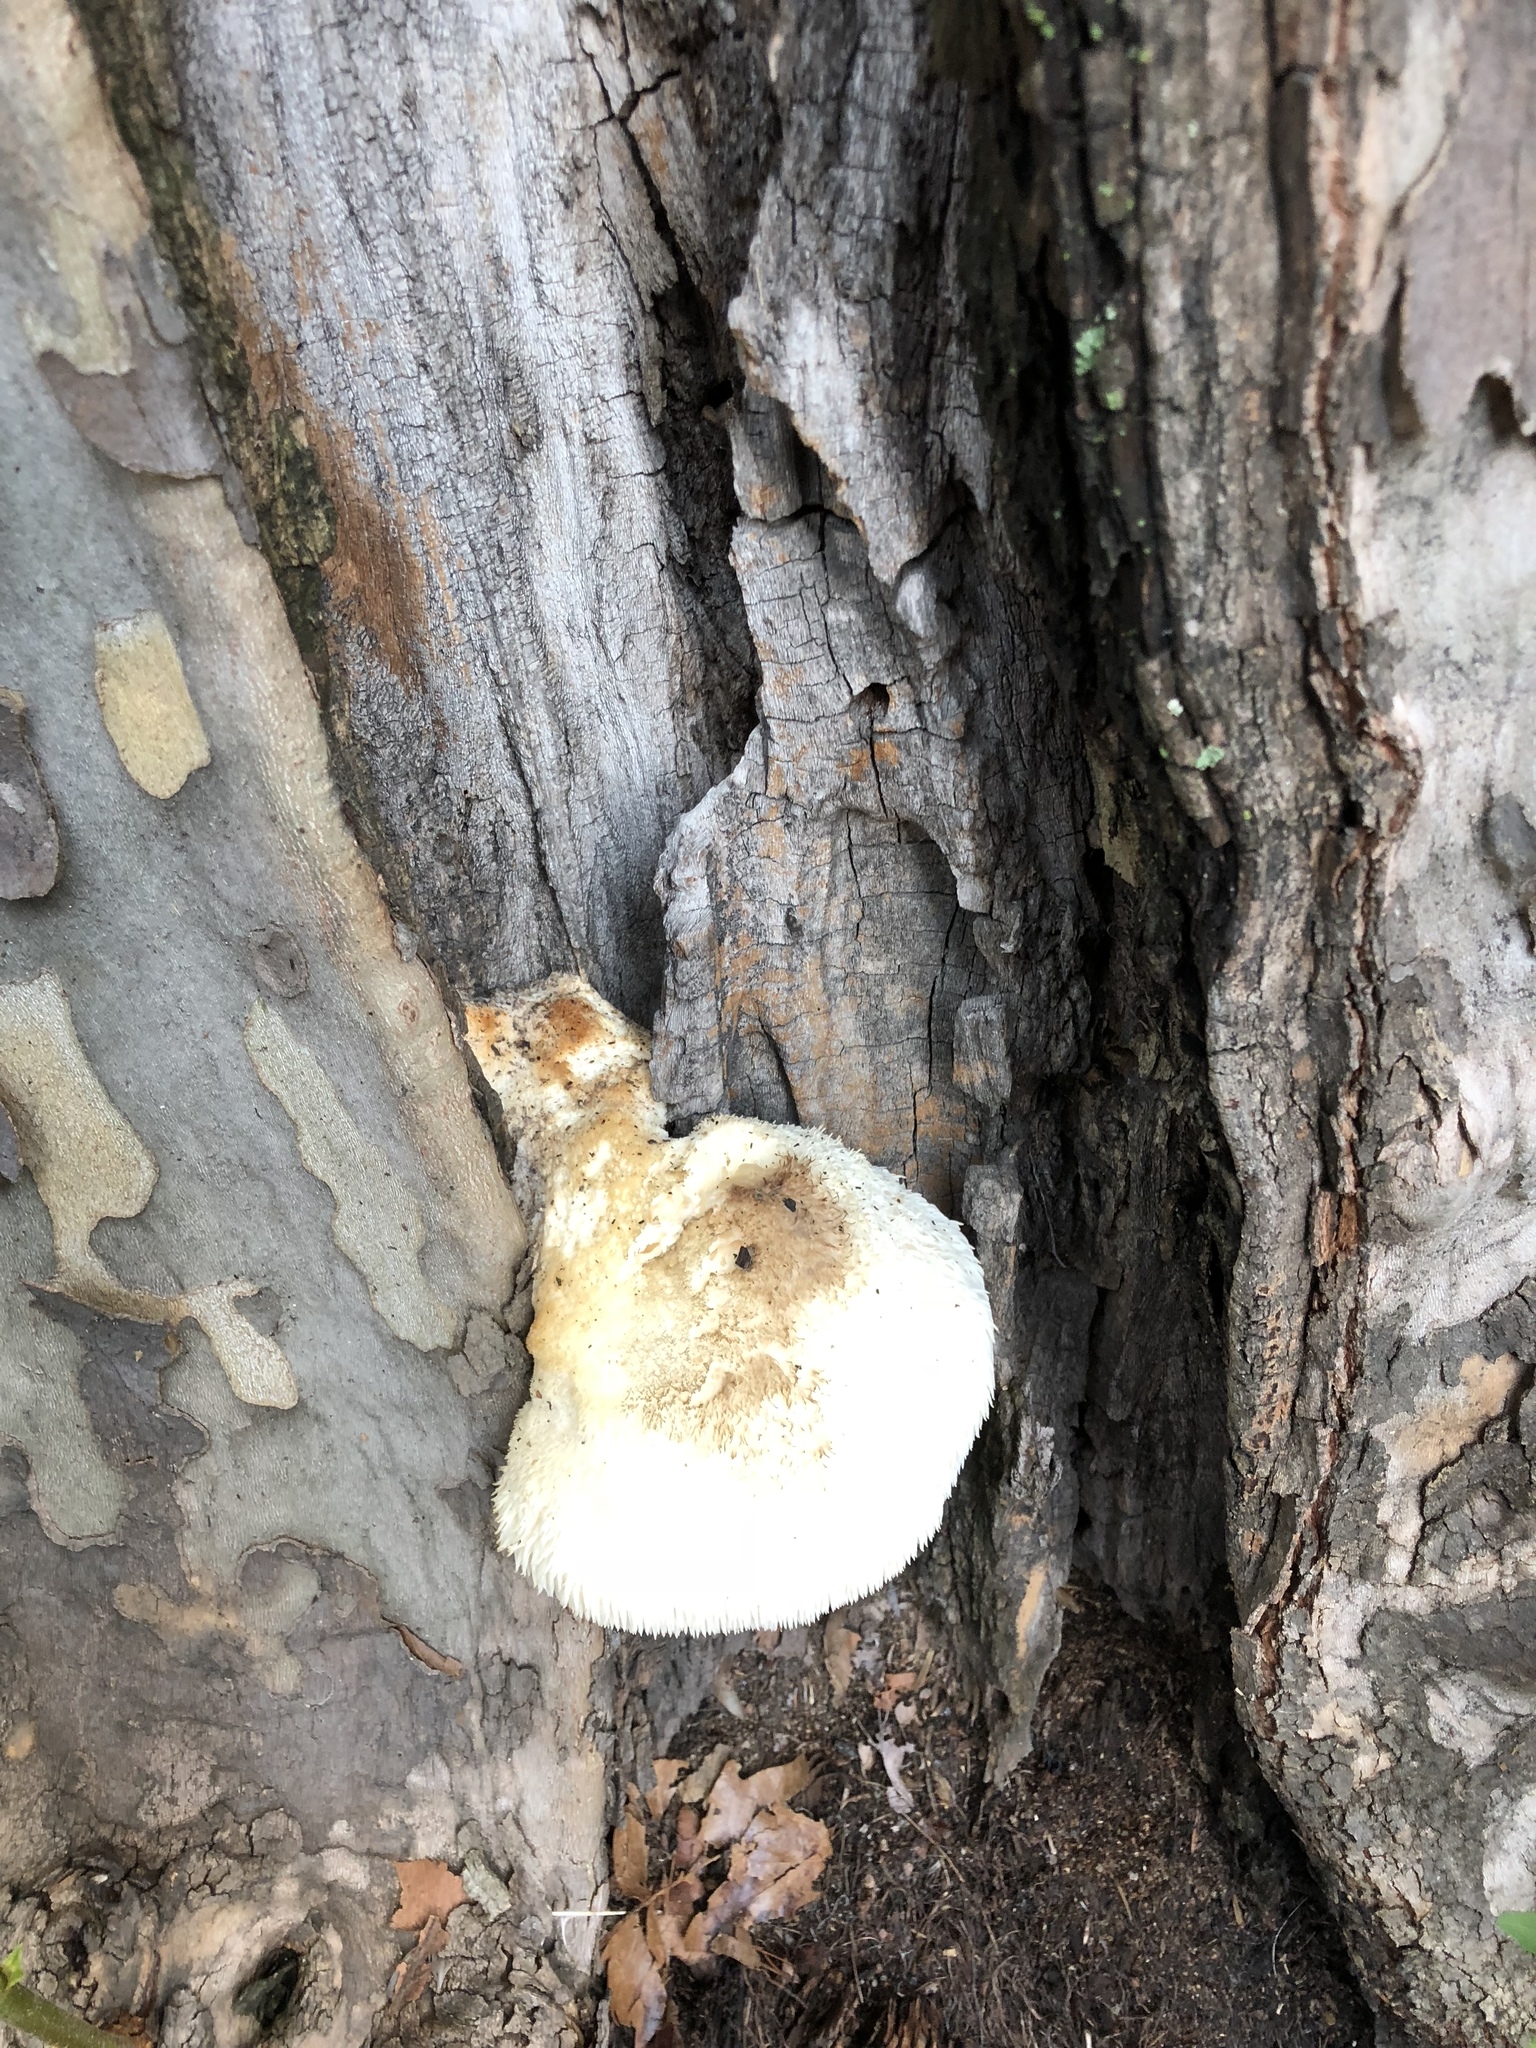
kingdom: Fungi
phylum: Basidiomycota
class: Agaricomycetes
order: Russulales
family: Hericiaceae
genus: Hericium
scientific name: Hericium erinaceus
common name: Bearded tooth
